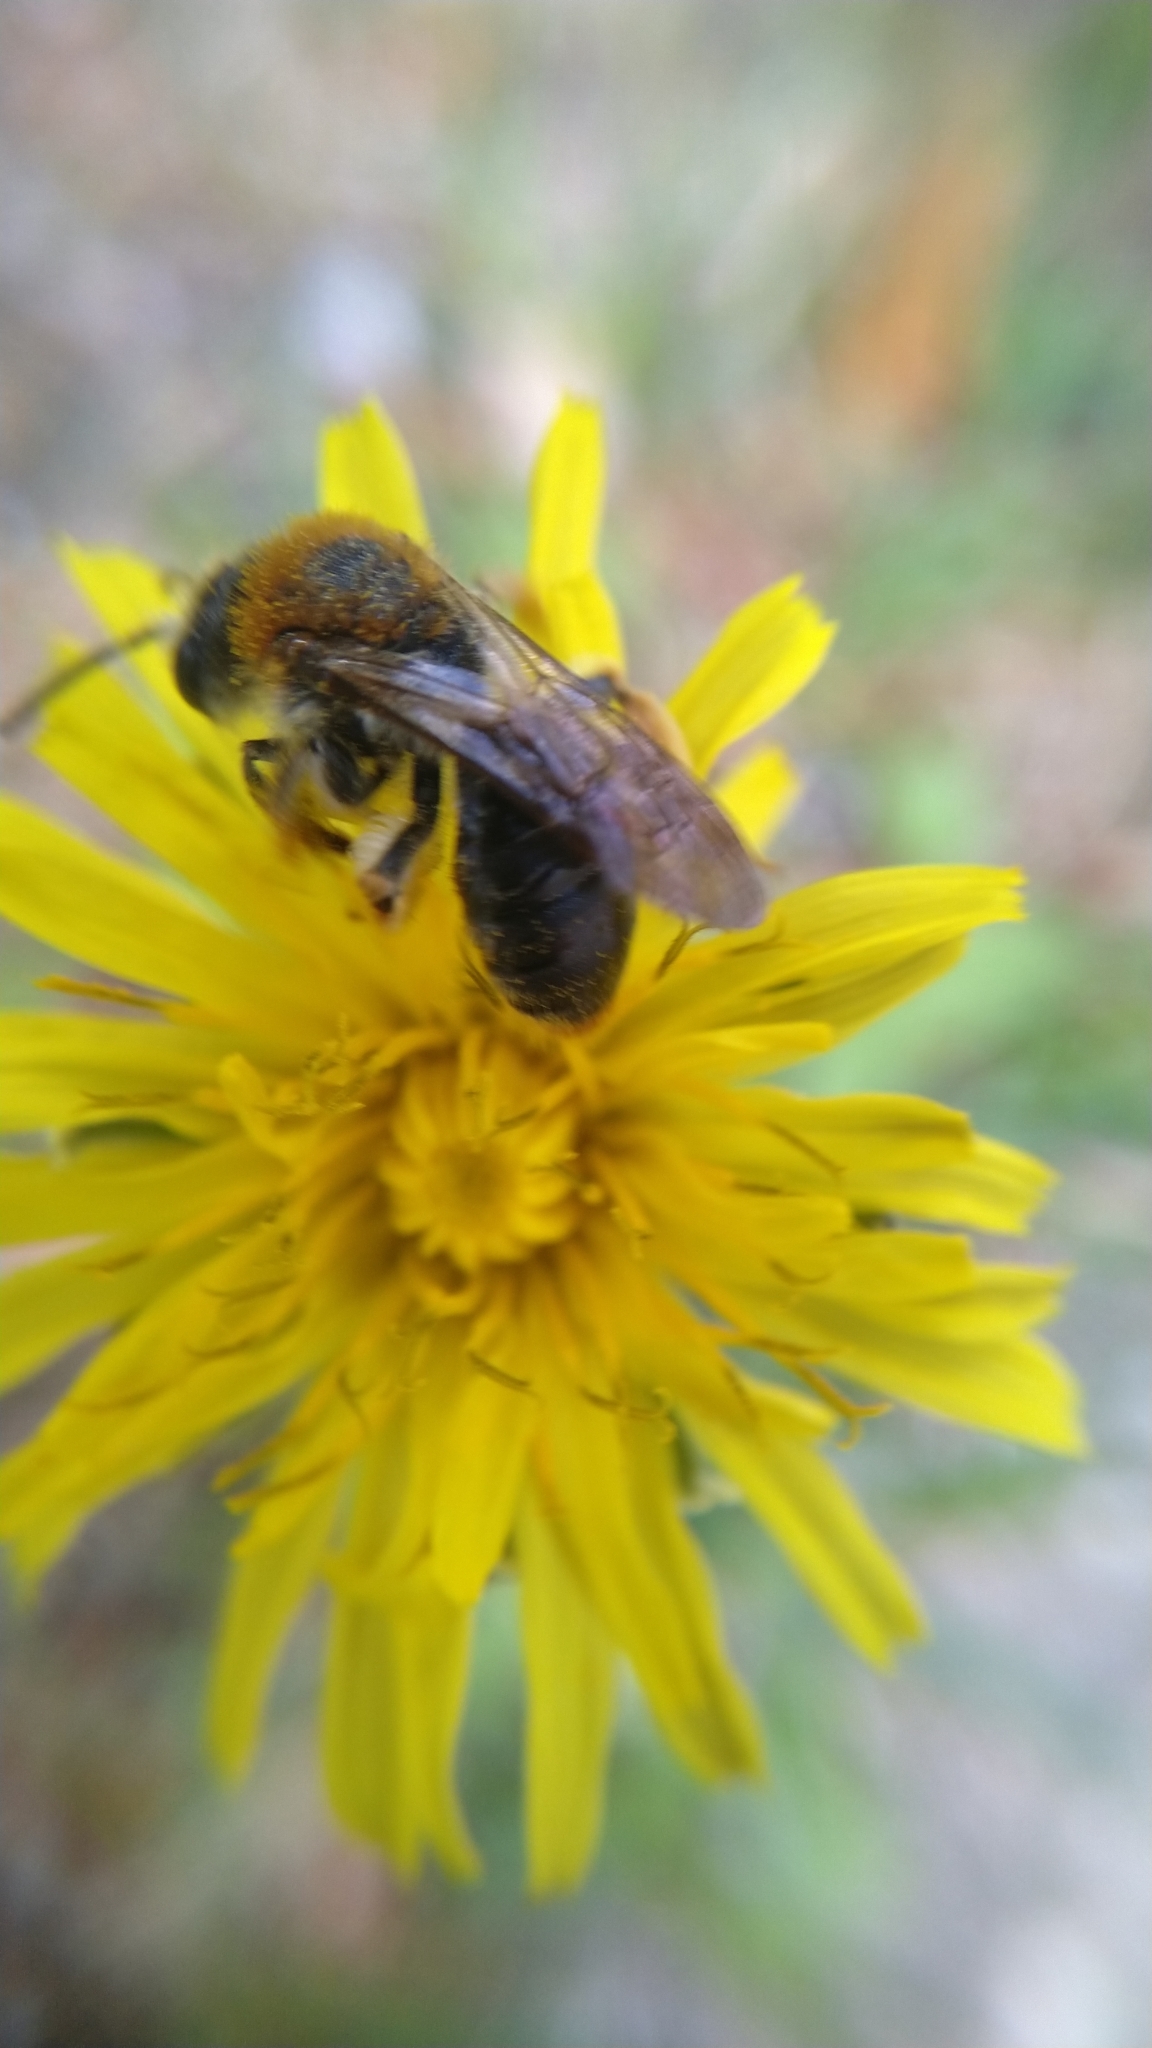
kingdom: Animalia
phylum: Arthropoda
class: Insecta
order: Hymenoptera
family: Andrenidae
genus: Andrena
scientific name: Andrena haemorrhoa
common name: Early mining bee
